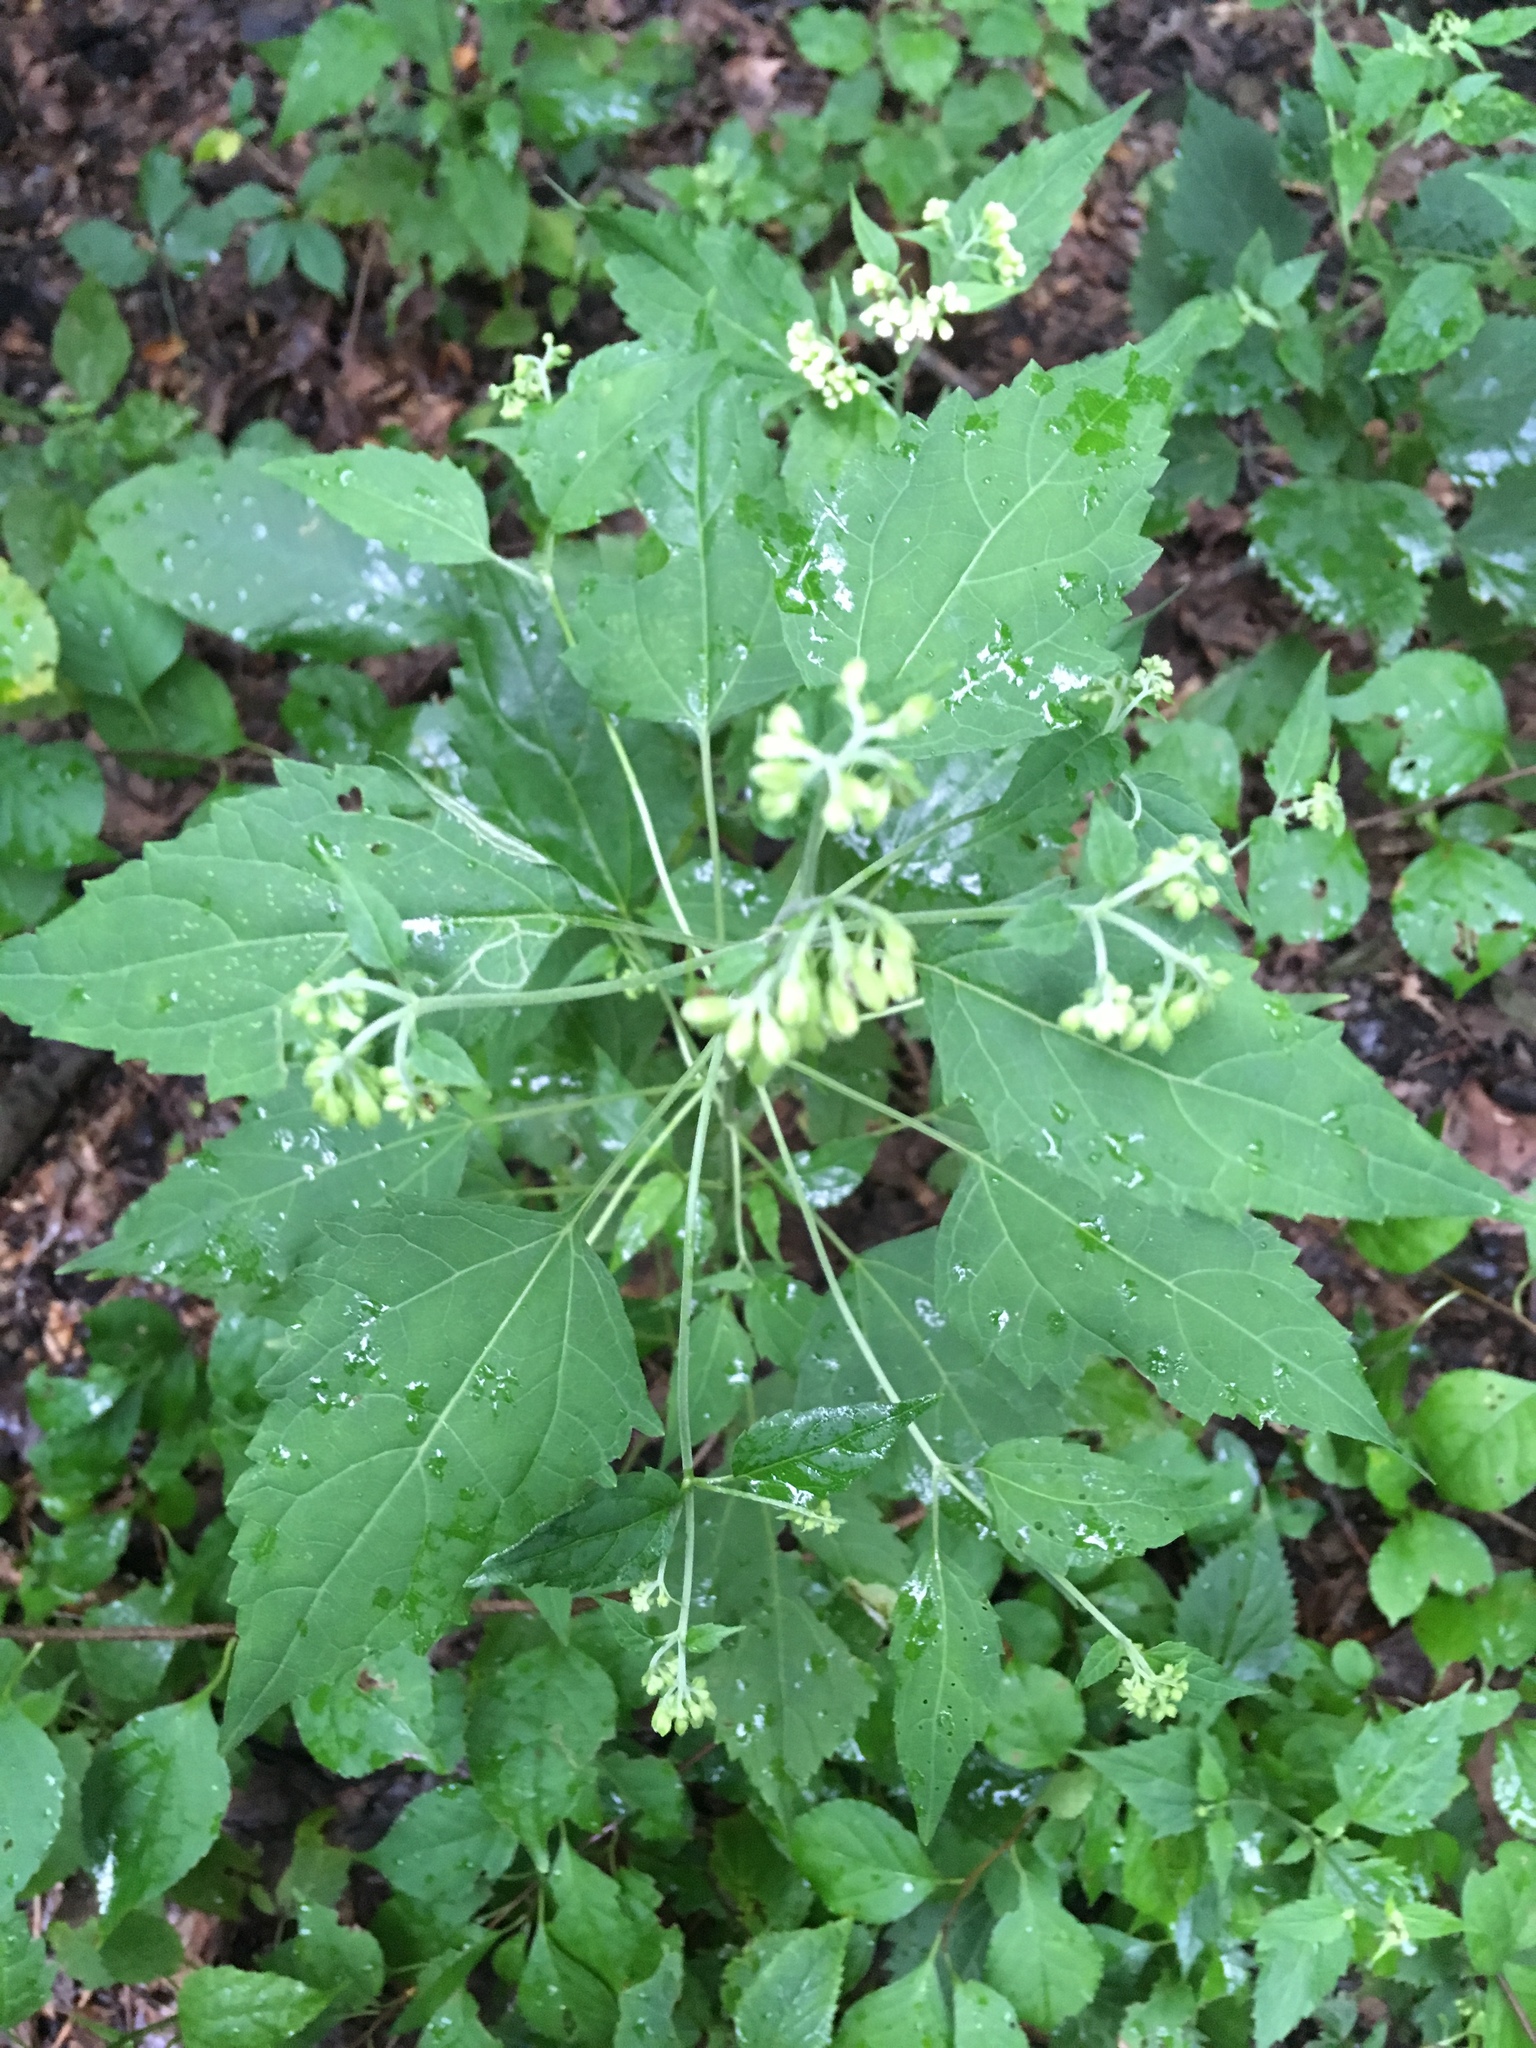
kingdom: Plantae
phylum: Tracheophyta
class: Magnoliopsida
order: Asterales
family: Asteraceae
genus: Ageratina
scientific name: Ageratina altissima
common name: White snakeroot
